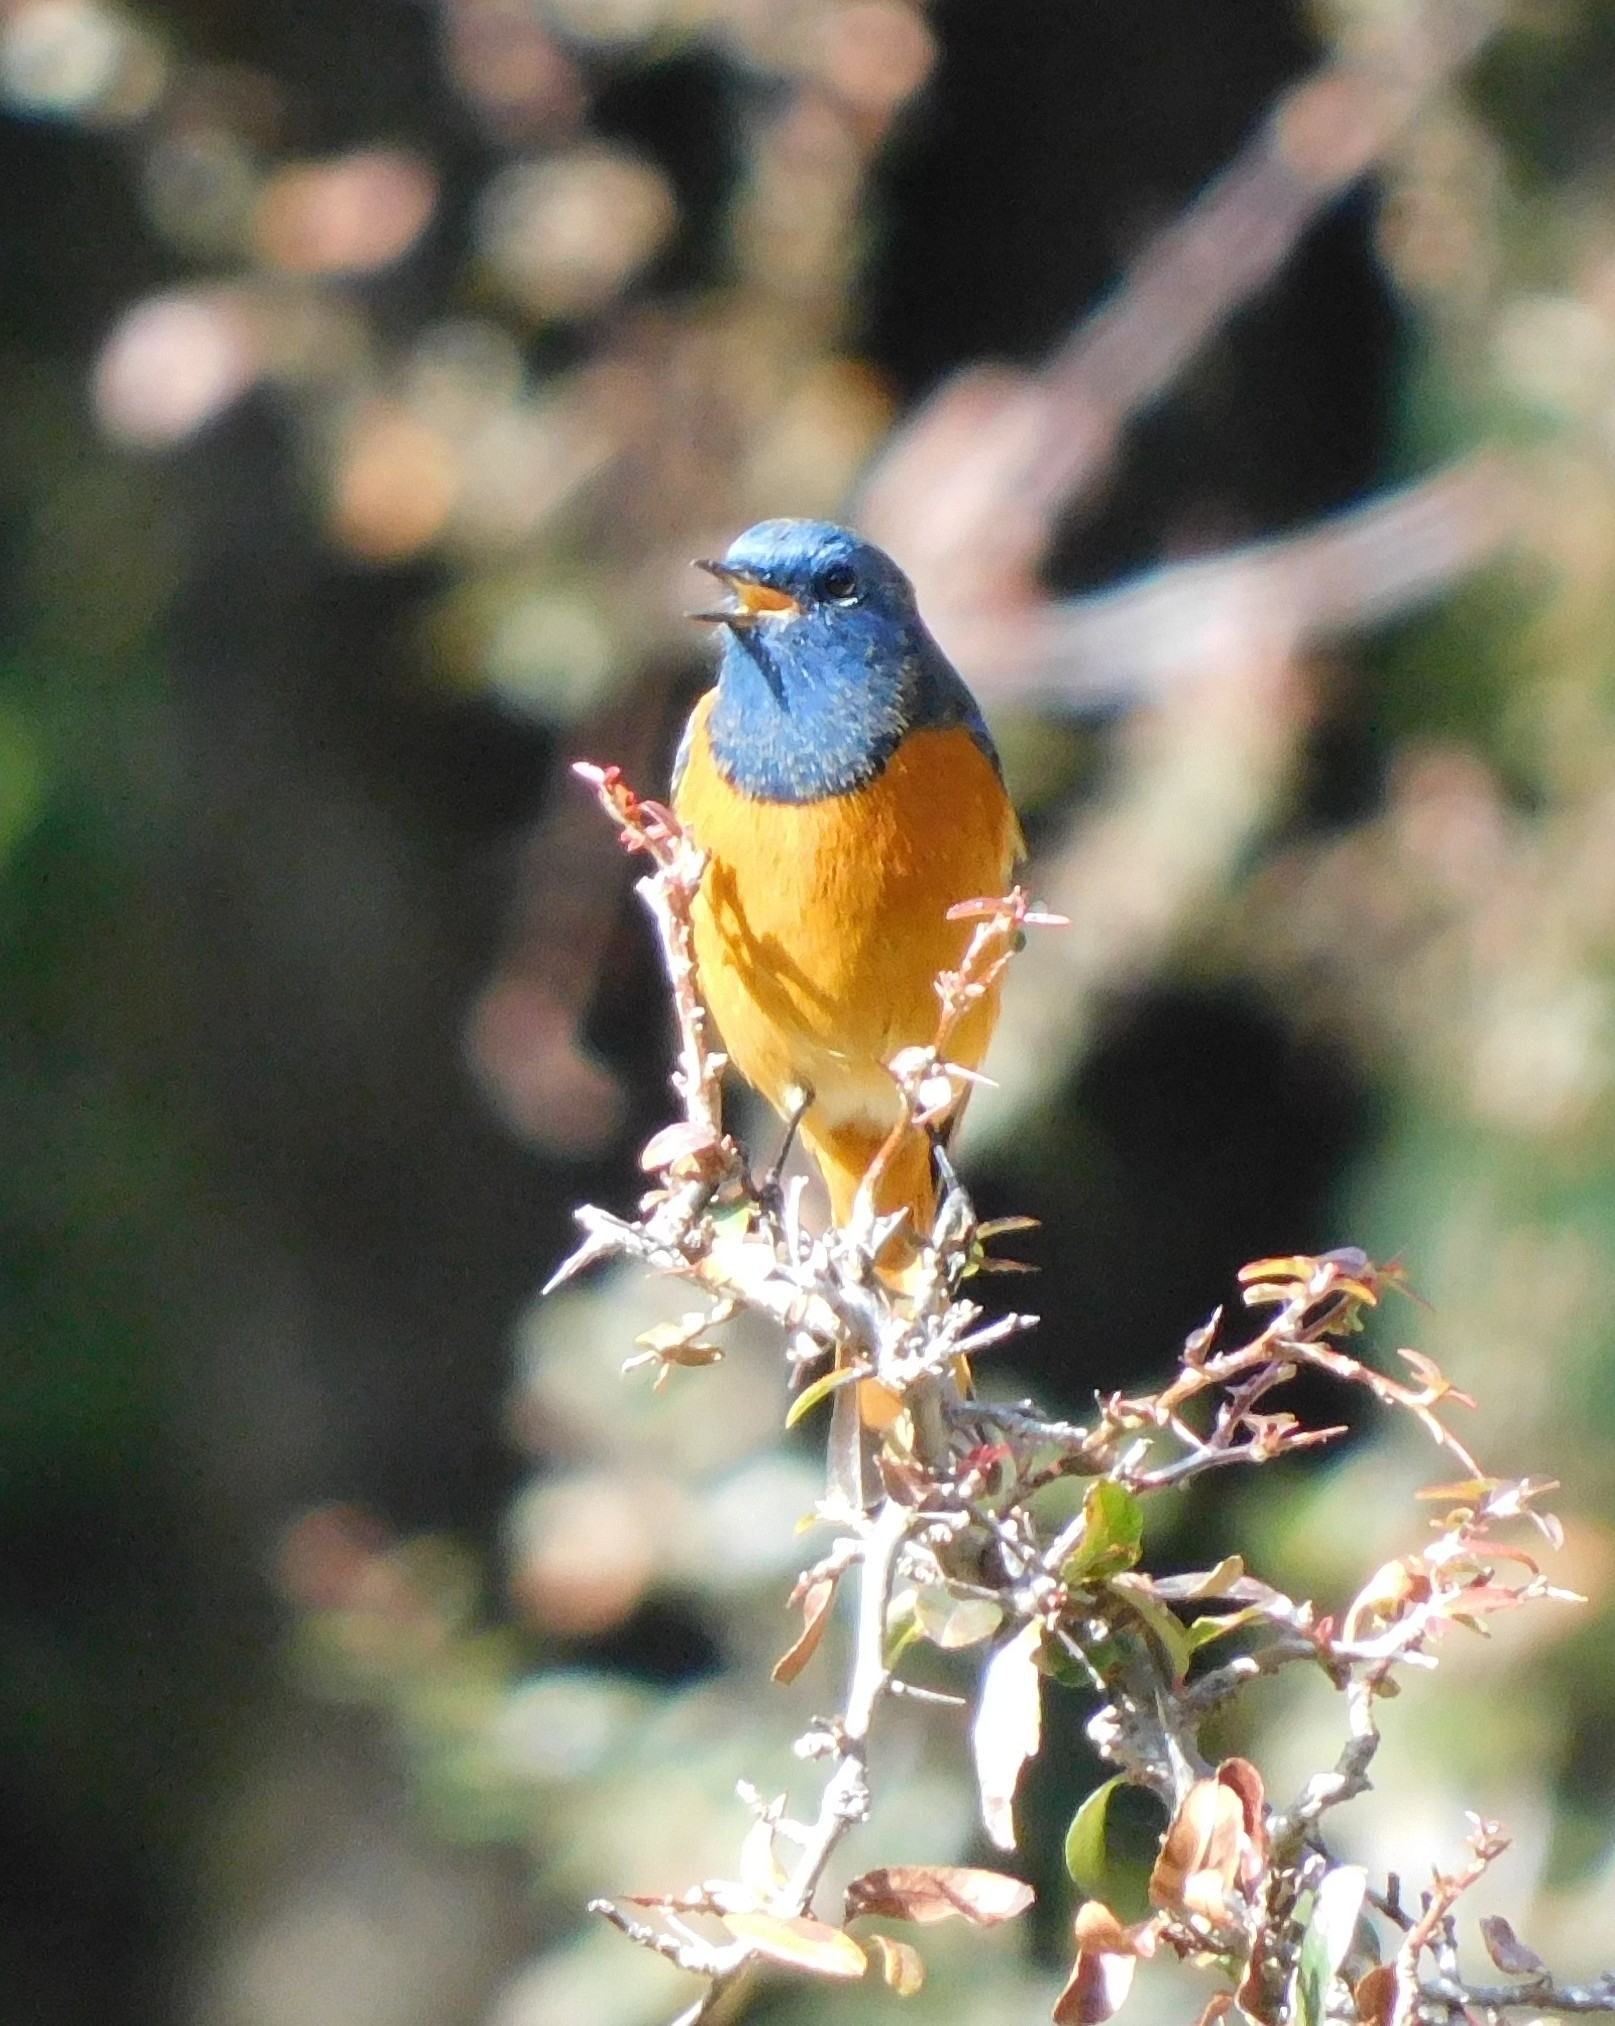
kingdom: Animalia
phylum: Chordata
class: Aves
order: Passeriformes
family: Muscicapidae
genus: Phoenicurus
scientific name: Phoenicurus frontalis
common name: Blue-fronted redstart
